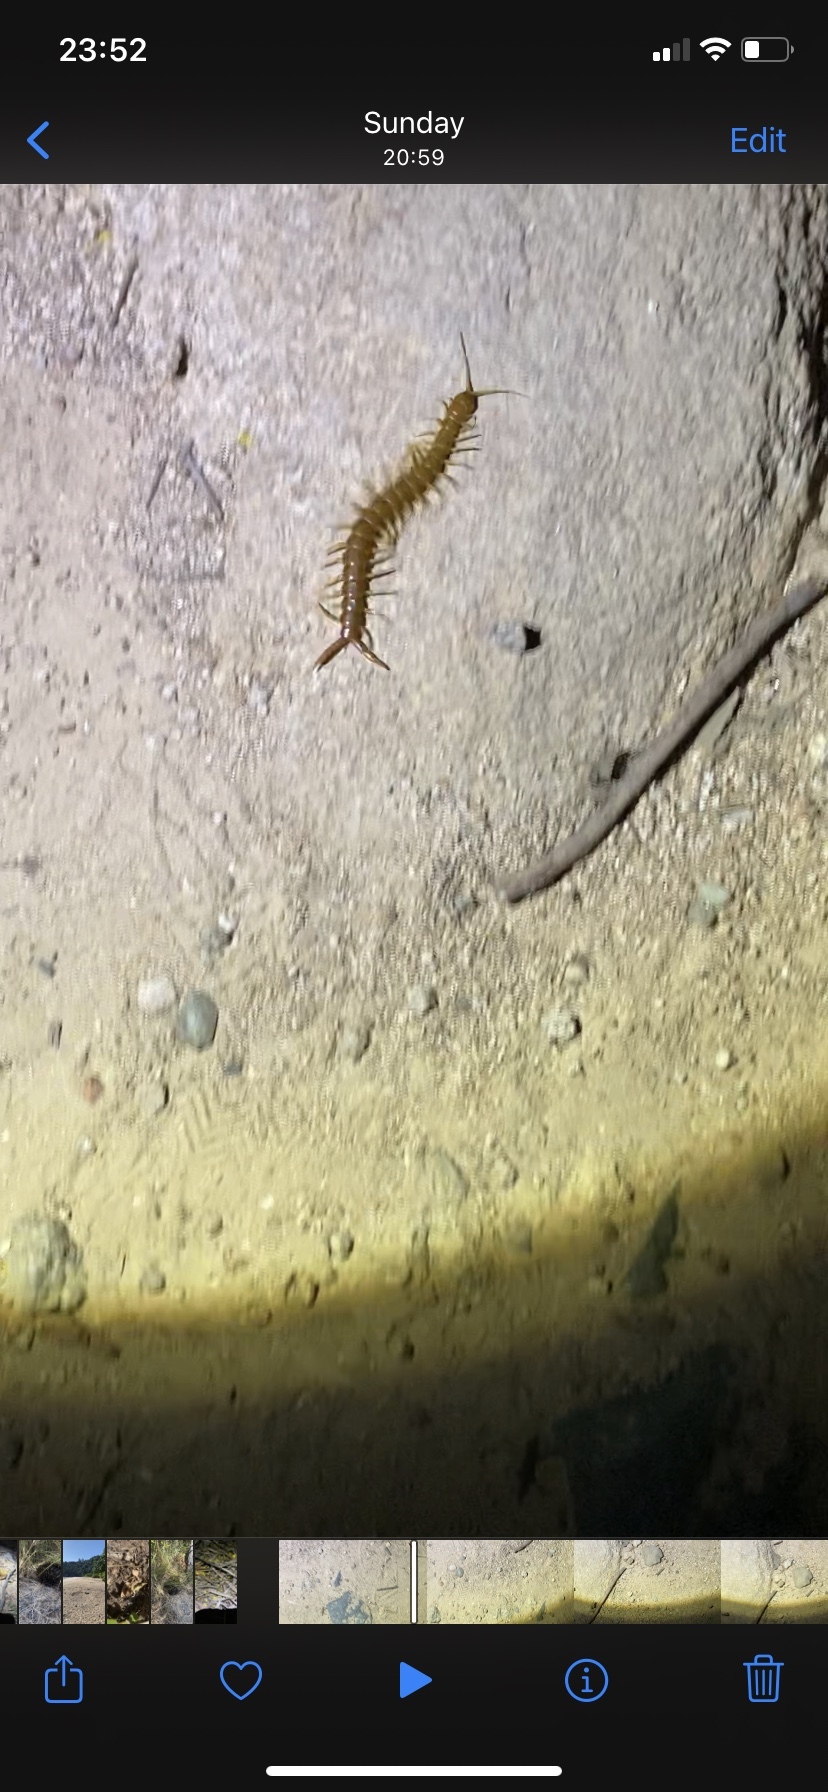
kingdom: Animalia
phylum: Arthropoda
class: Chilopoda
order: Scolopendromorpha
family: Scolopendridae
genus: Ethmostigmus
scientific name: Ethmostigmus rubripes
